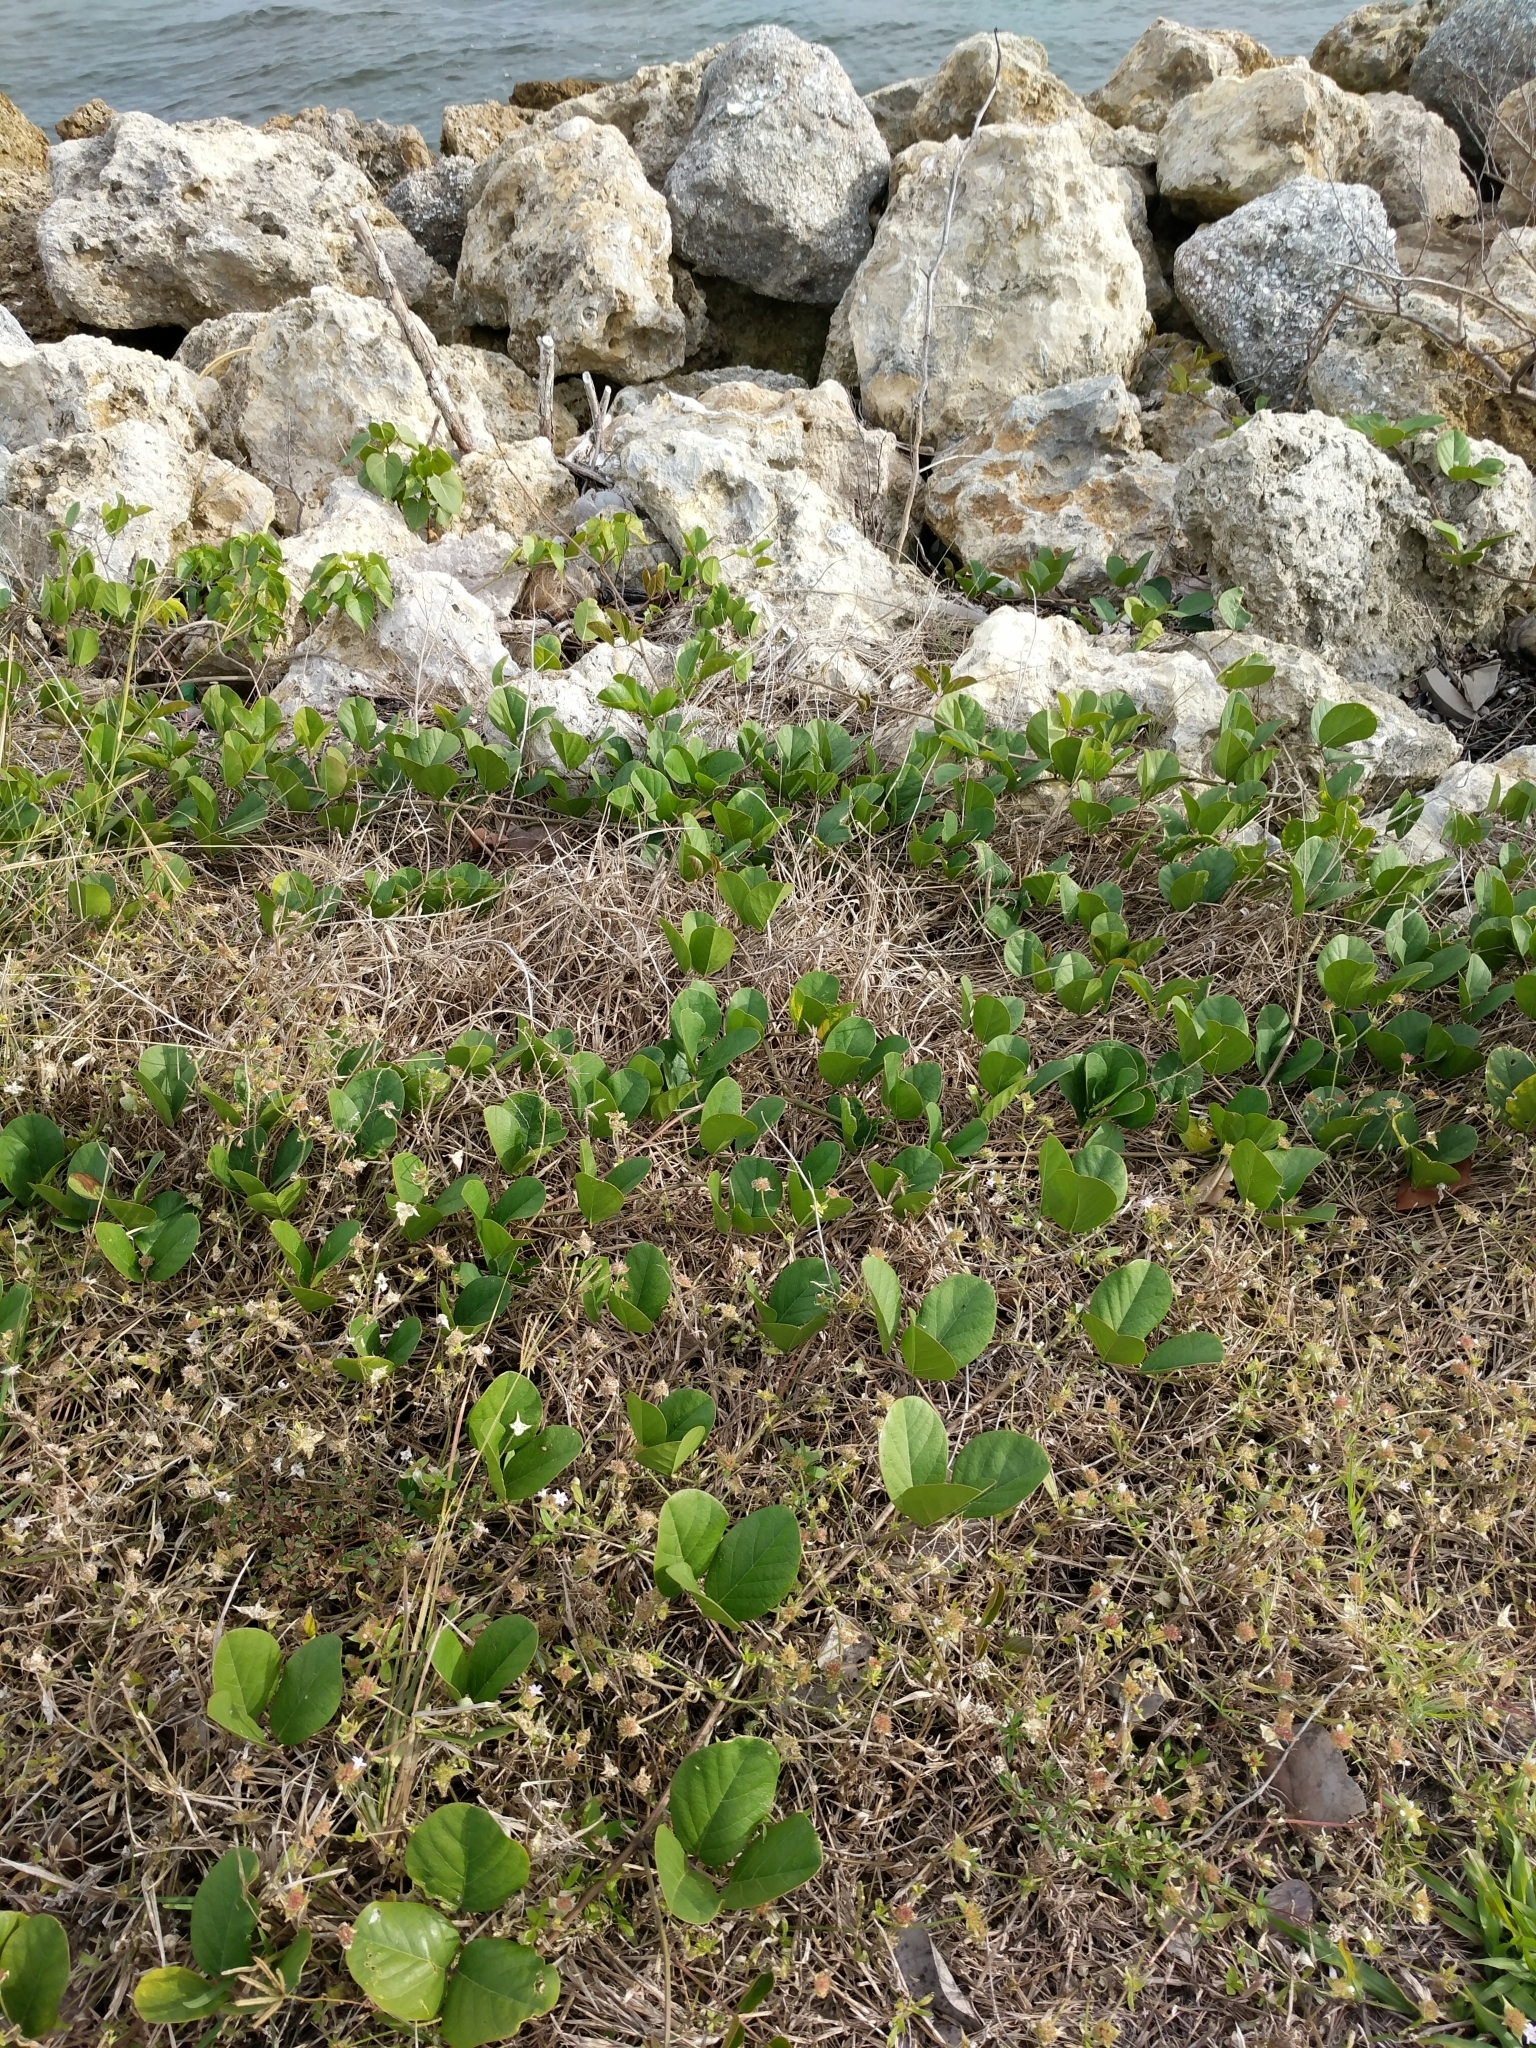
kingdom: Plantae
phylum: Tracheophyta
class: Magnoliopsida
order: Fabales
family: Fabaceae
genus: Canavalia
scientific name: Canavalia rosea
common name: Beach-bean
